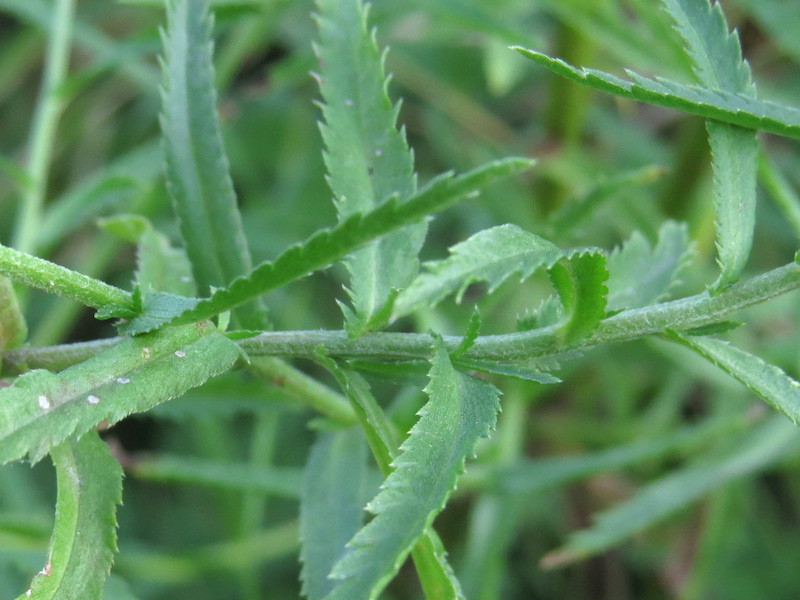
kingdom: Plantae
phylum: Tracheophyta
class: Magnoliopsida
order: Asterales
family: Asteraceae
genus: Achillea
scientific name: Achillea ptarmica
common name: Sneezeweed
